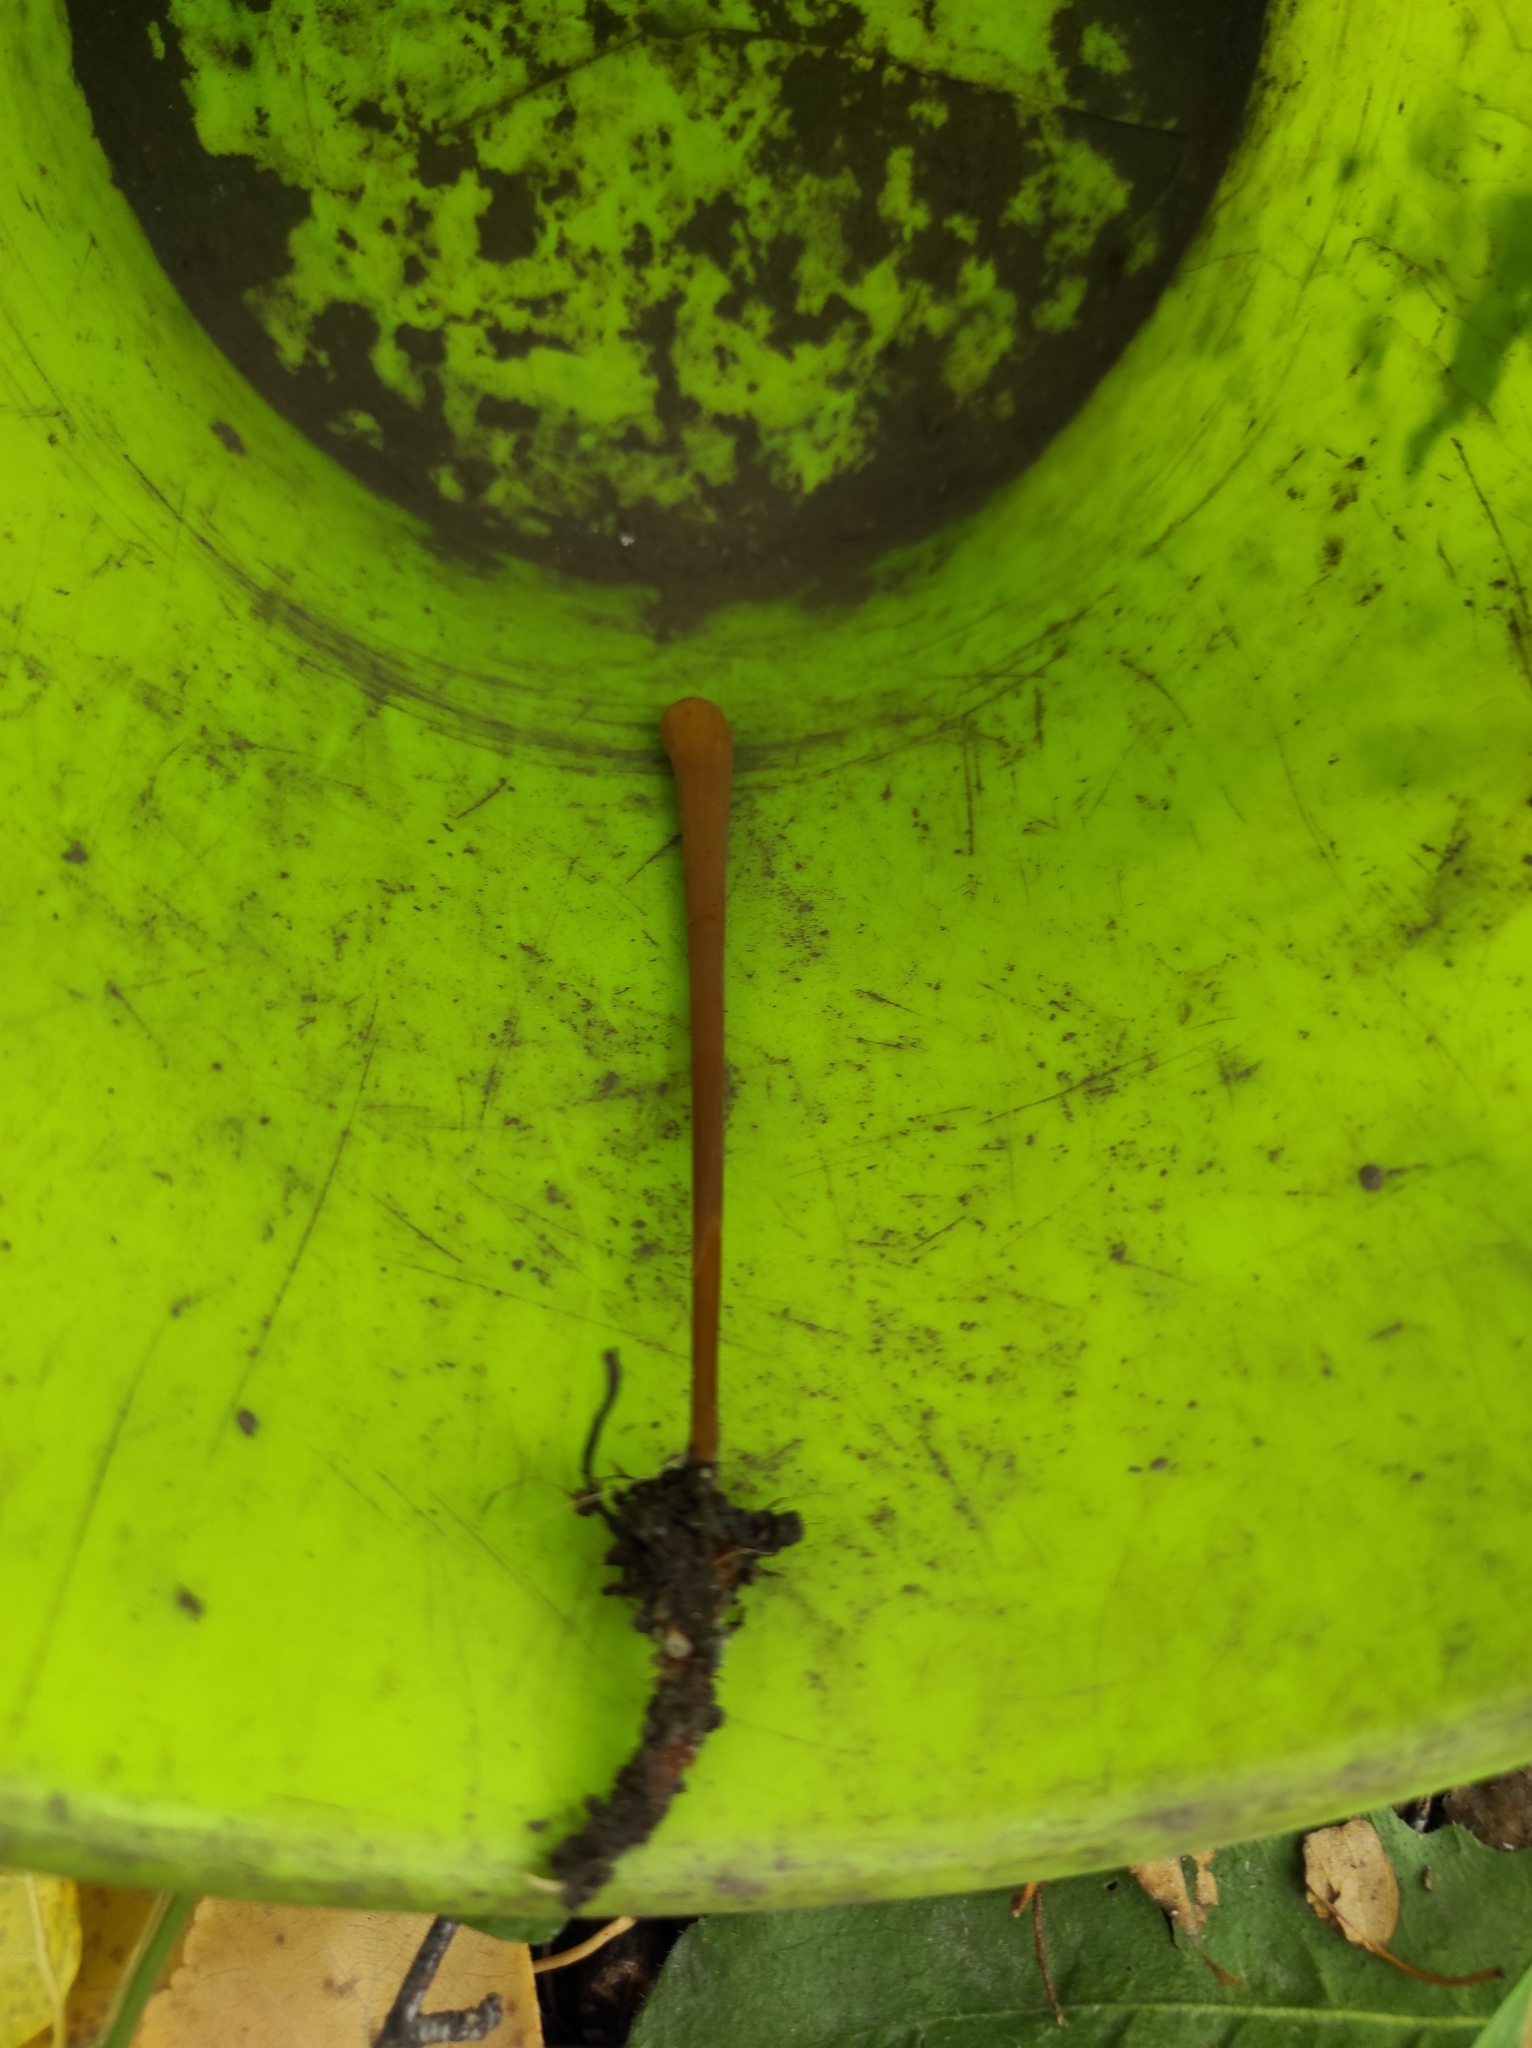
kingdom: Fungi
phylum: Basidiomycota
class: Agaricomycetes
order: Agaricales
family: Typhulaceae
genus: Typhula
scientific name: Typhula fistulosa
